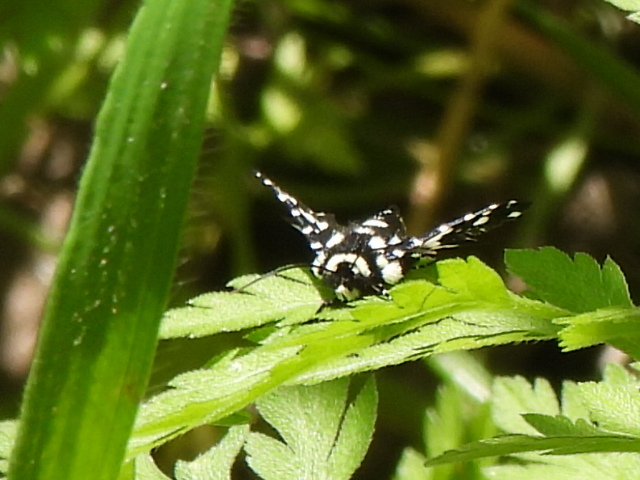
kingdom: Animalia
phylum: Arthropoda
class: Insecta
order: Lepidoptera
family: Thyrididae
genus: Pseudothyris
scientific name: Pseudothyris sepulchralis
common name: Mournful thyris moth
